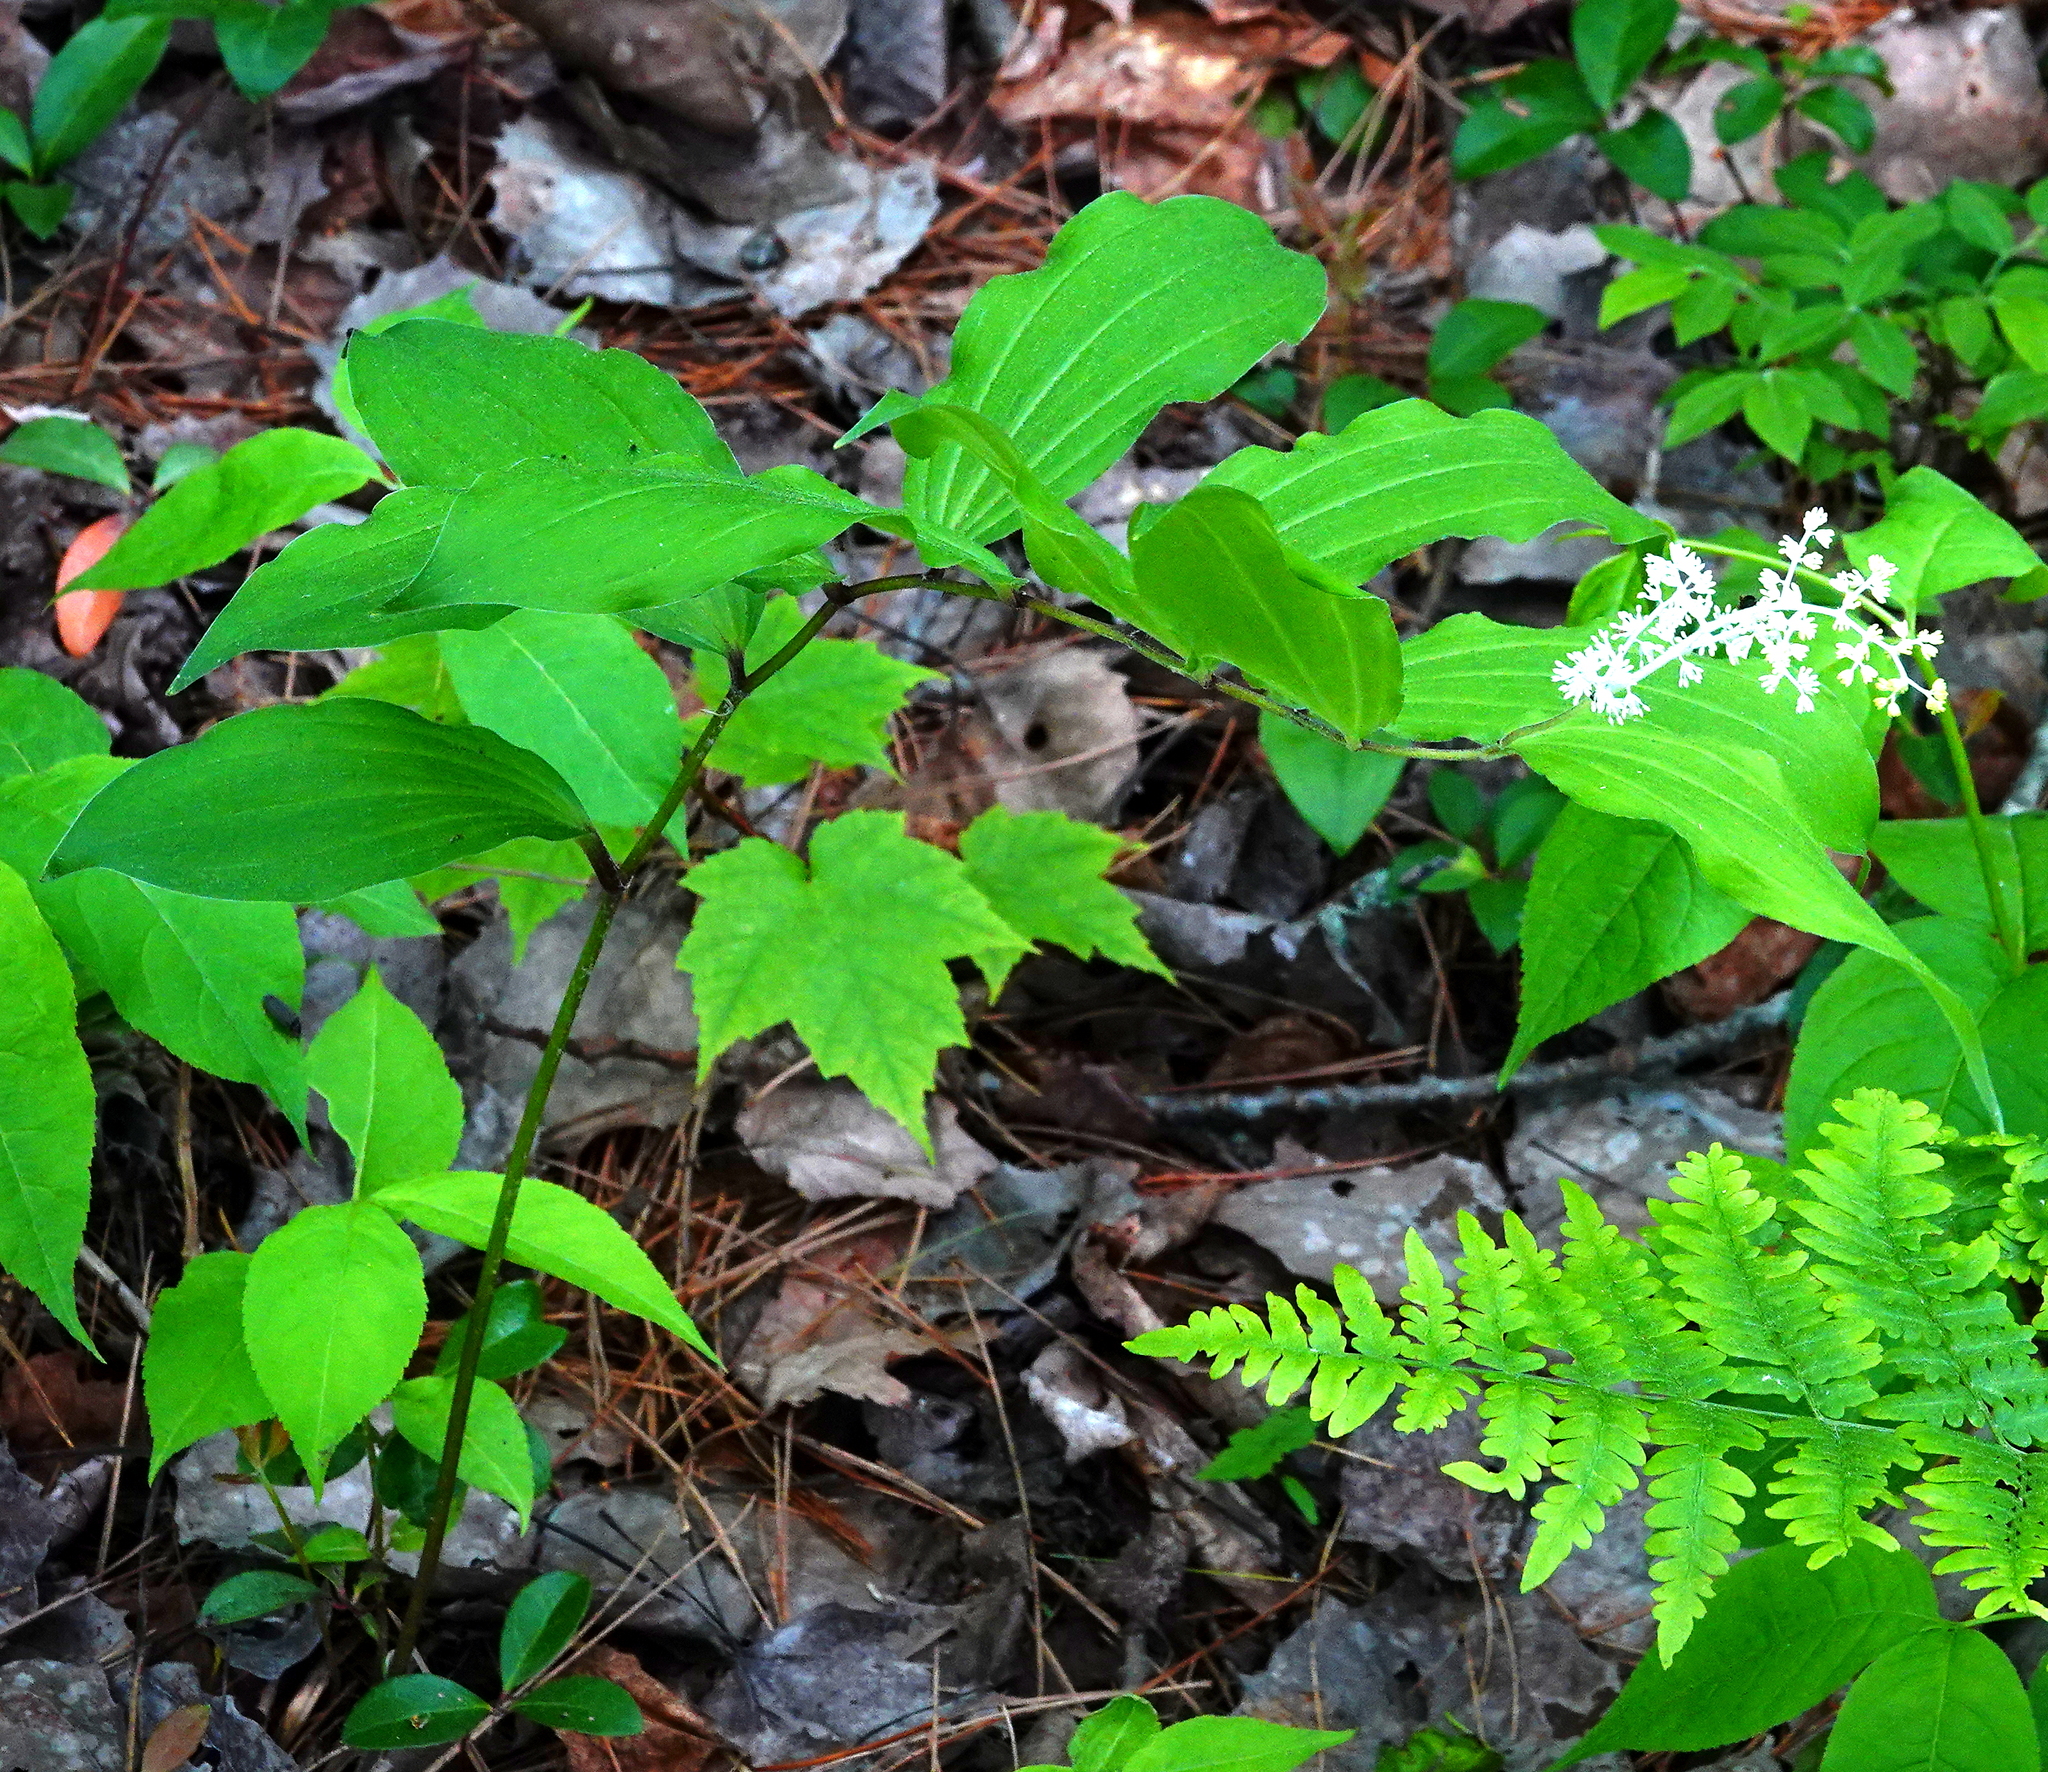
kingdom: Plantae
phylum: Tracheophyta
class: Liliopsida
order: Asparagales
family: Asparagaceae
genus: Maianthemum
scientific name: Maianthemum racemosum
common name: False spikenard
